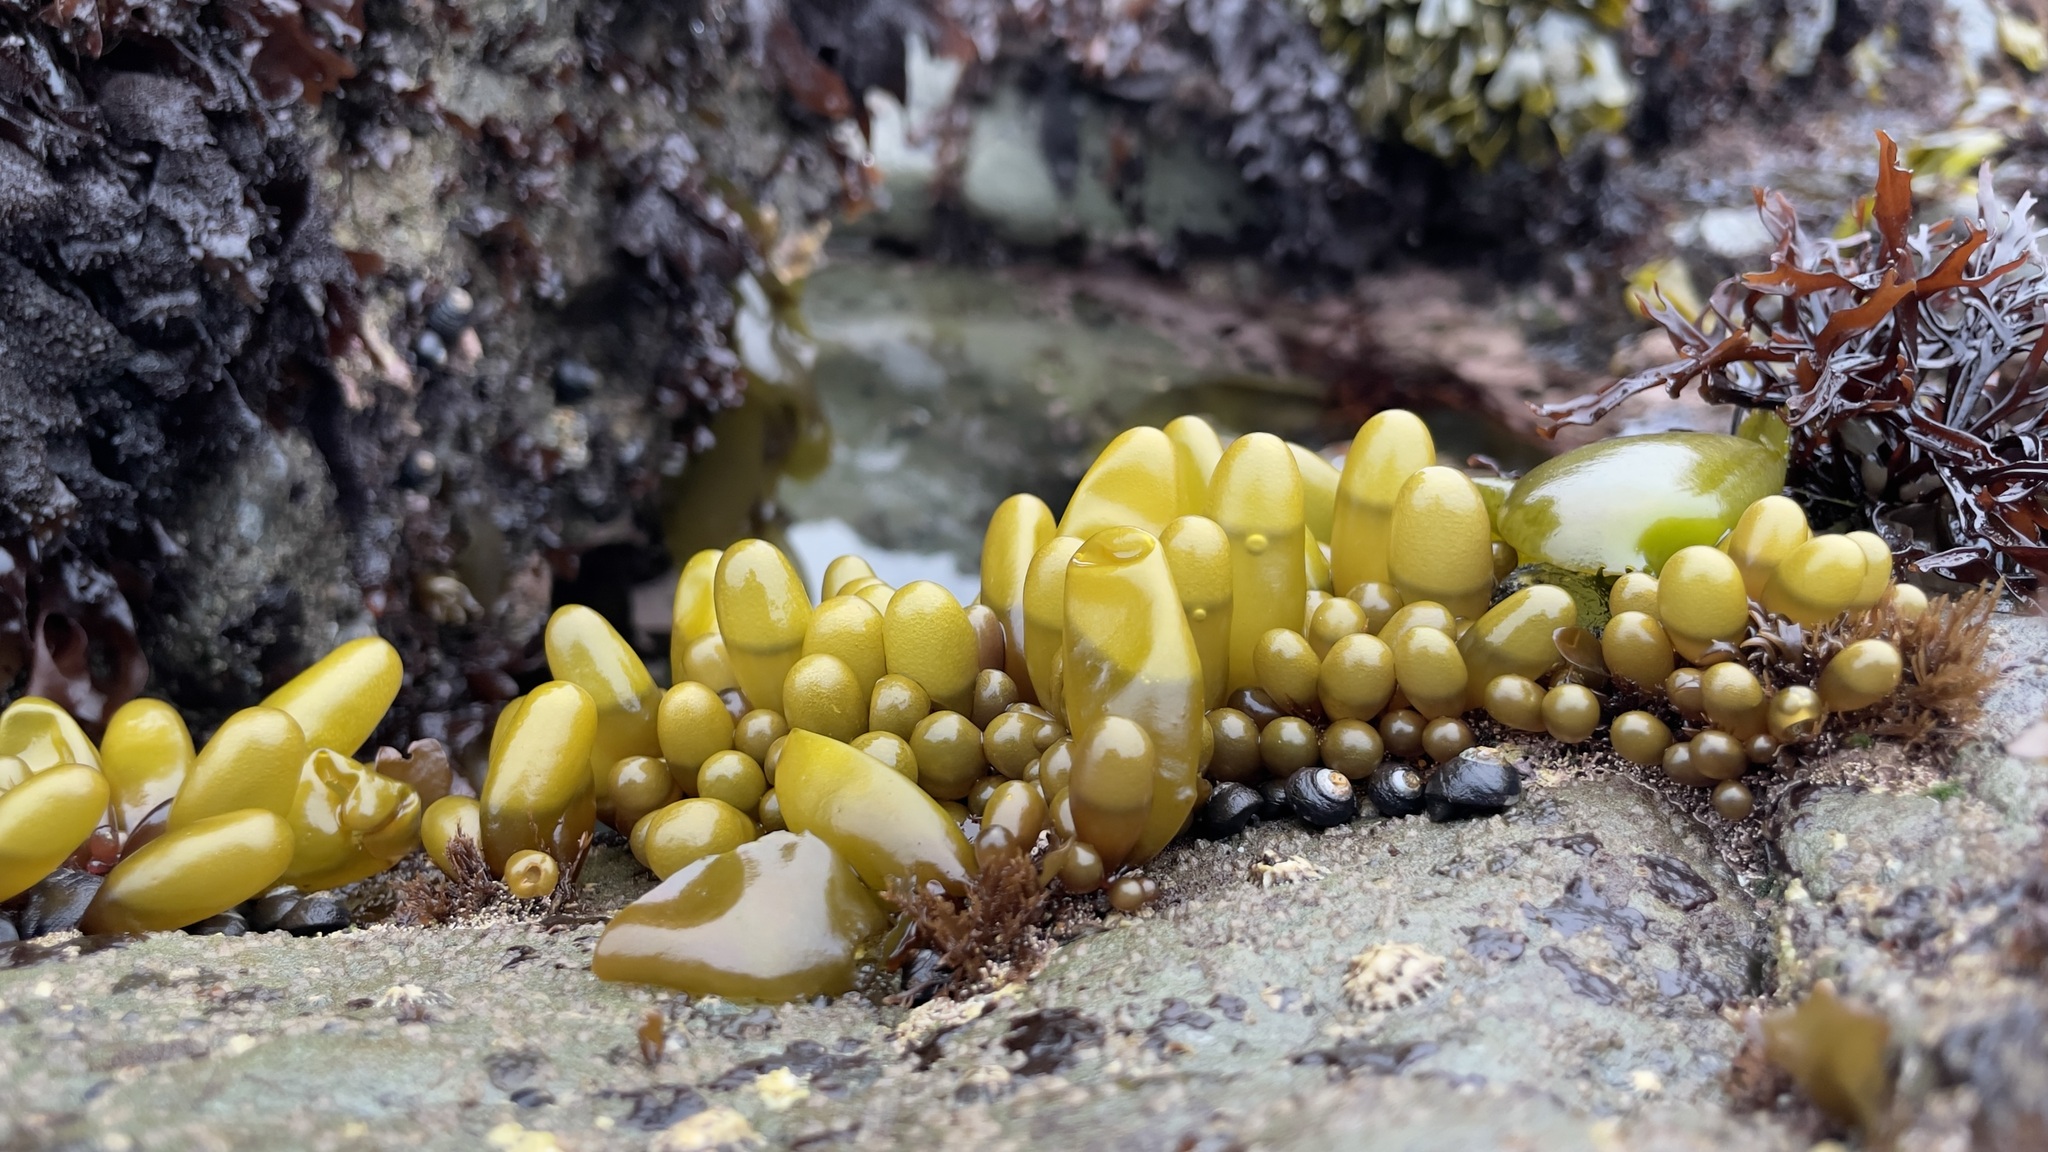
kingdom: Plantae
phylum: Rhodophyta
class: Florideophyceae
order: Palmariales
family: Palmariaceae
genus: Halosaccion
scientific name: Halosaccion glandiforme
